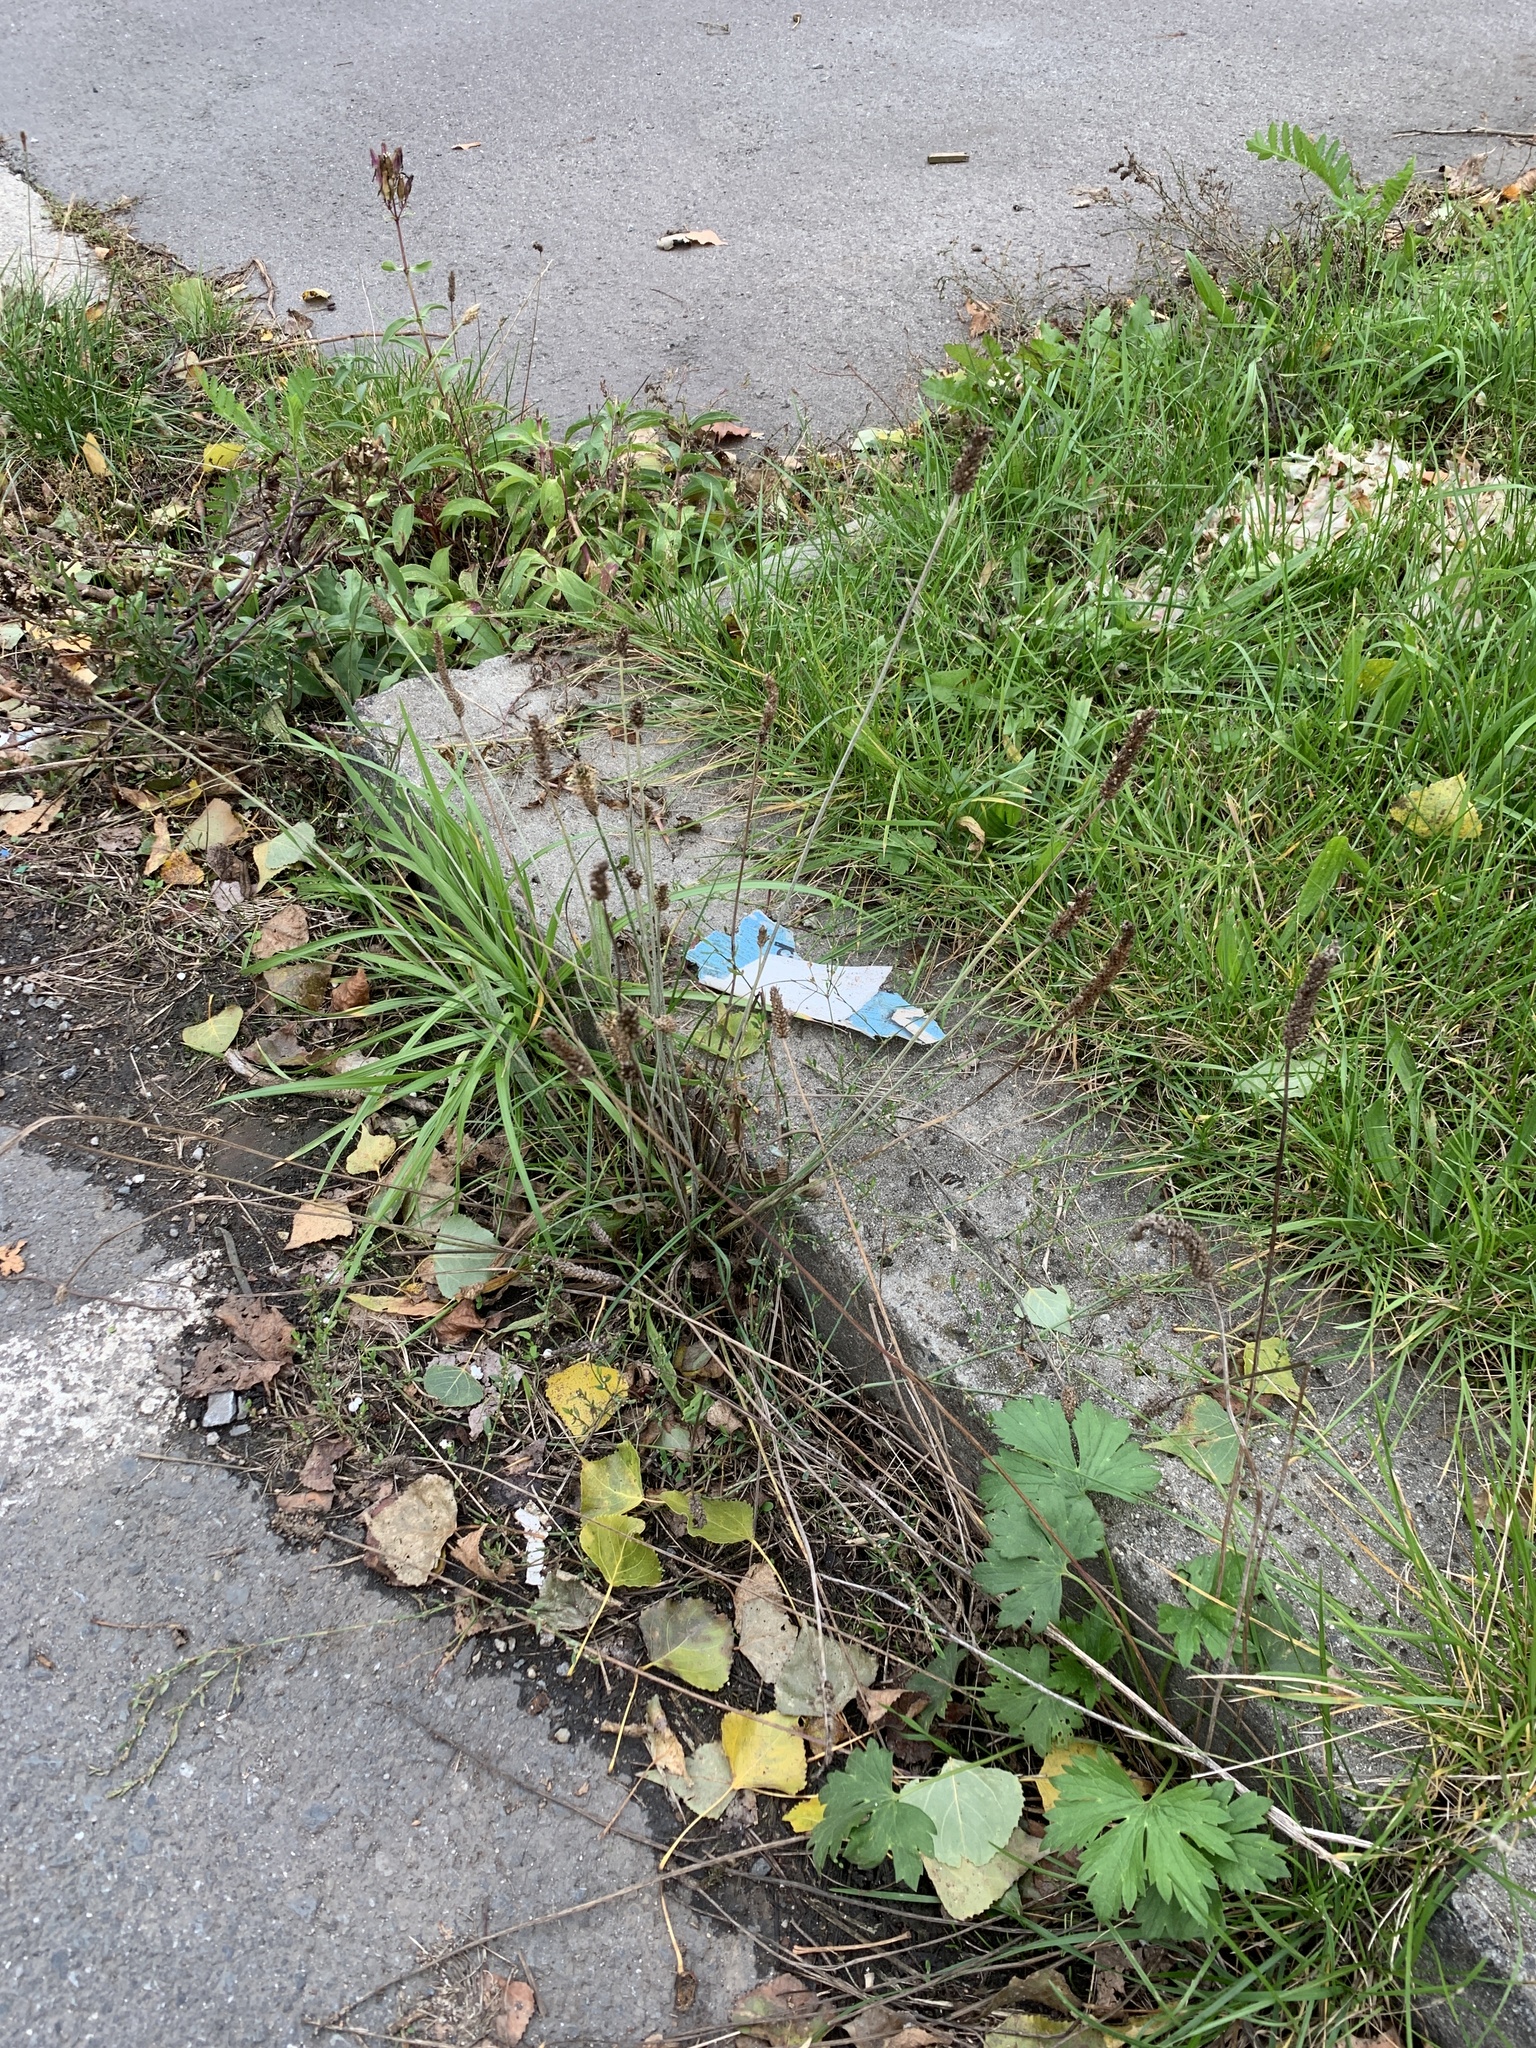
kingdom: Plantae
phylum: Tracheophyta
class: Magnoliopsida
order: Lamiales
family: Plantaginaceae
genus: Plantago
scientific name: Plantago lanceolata
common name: Ribwort plantain
